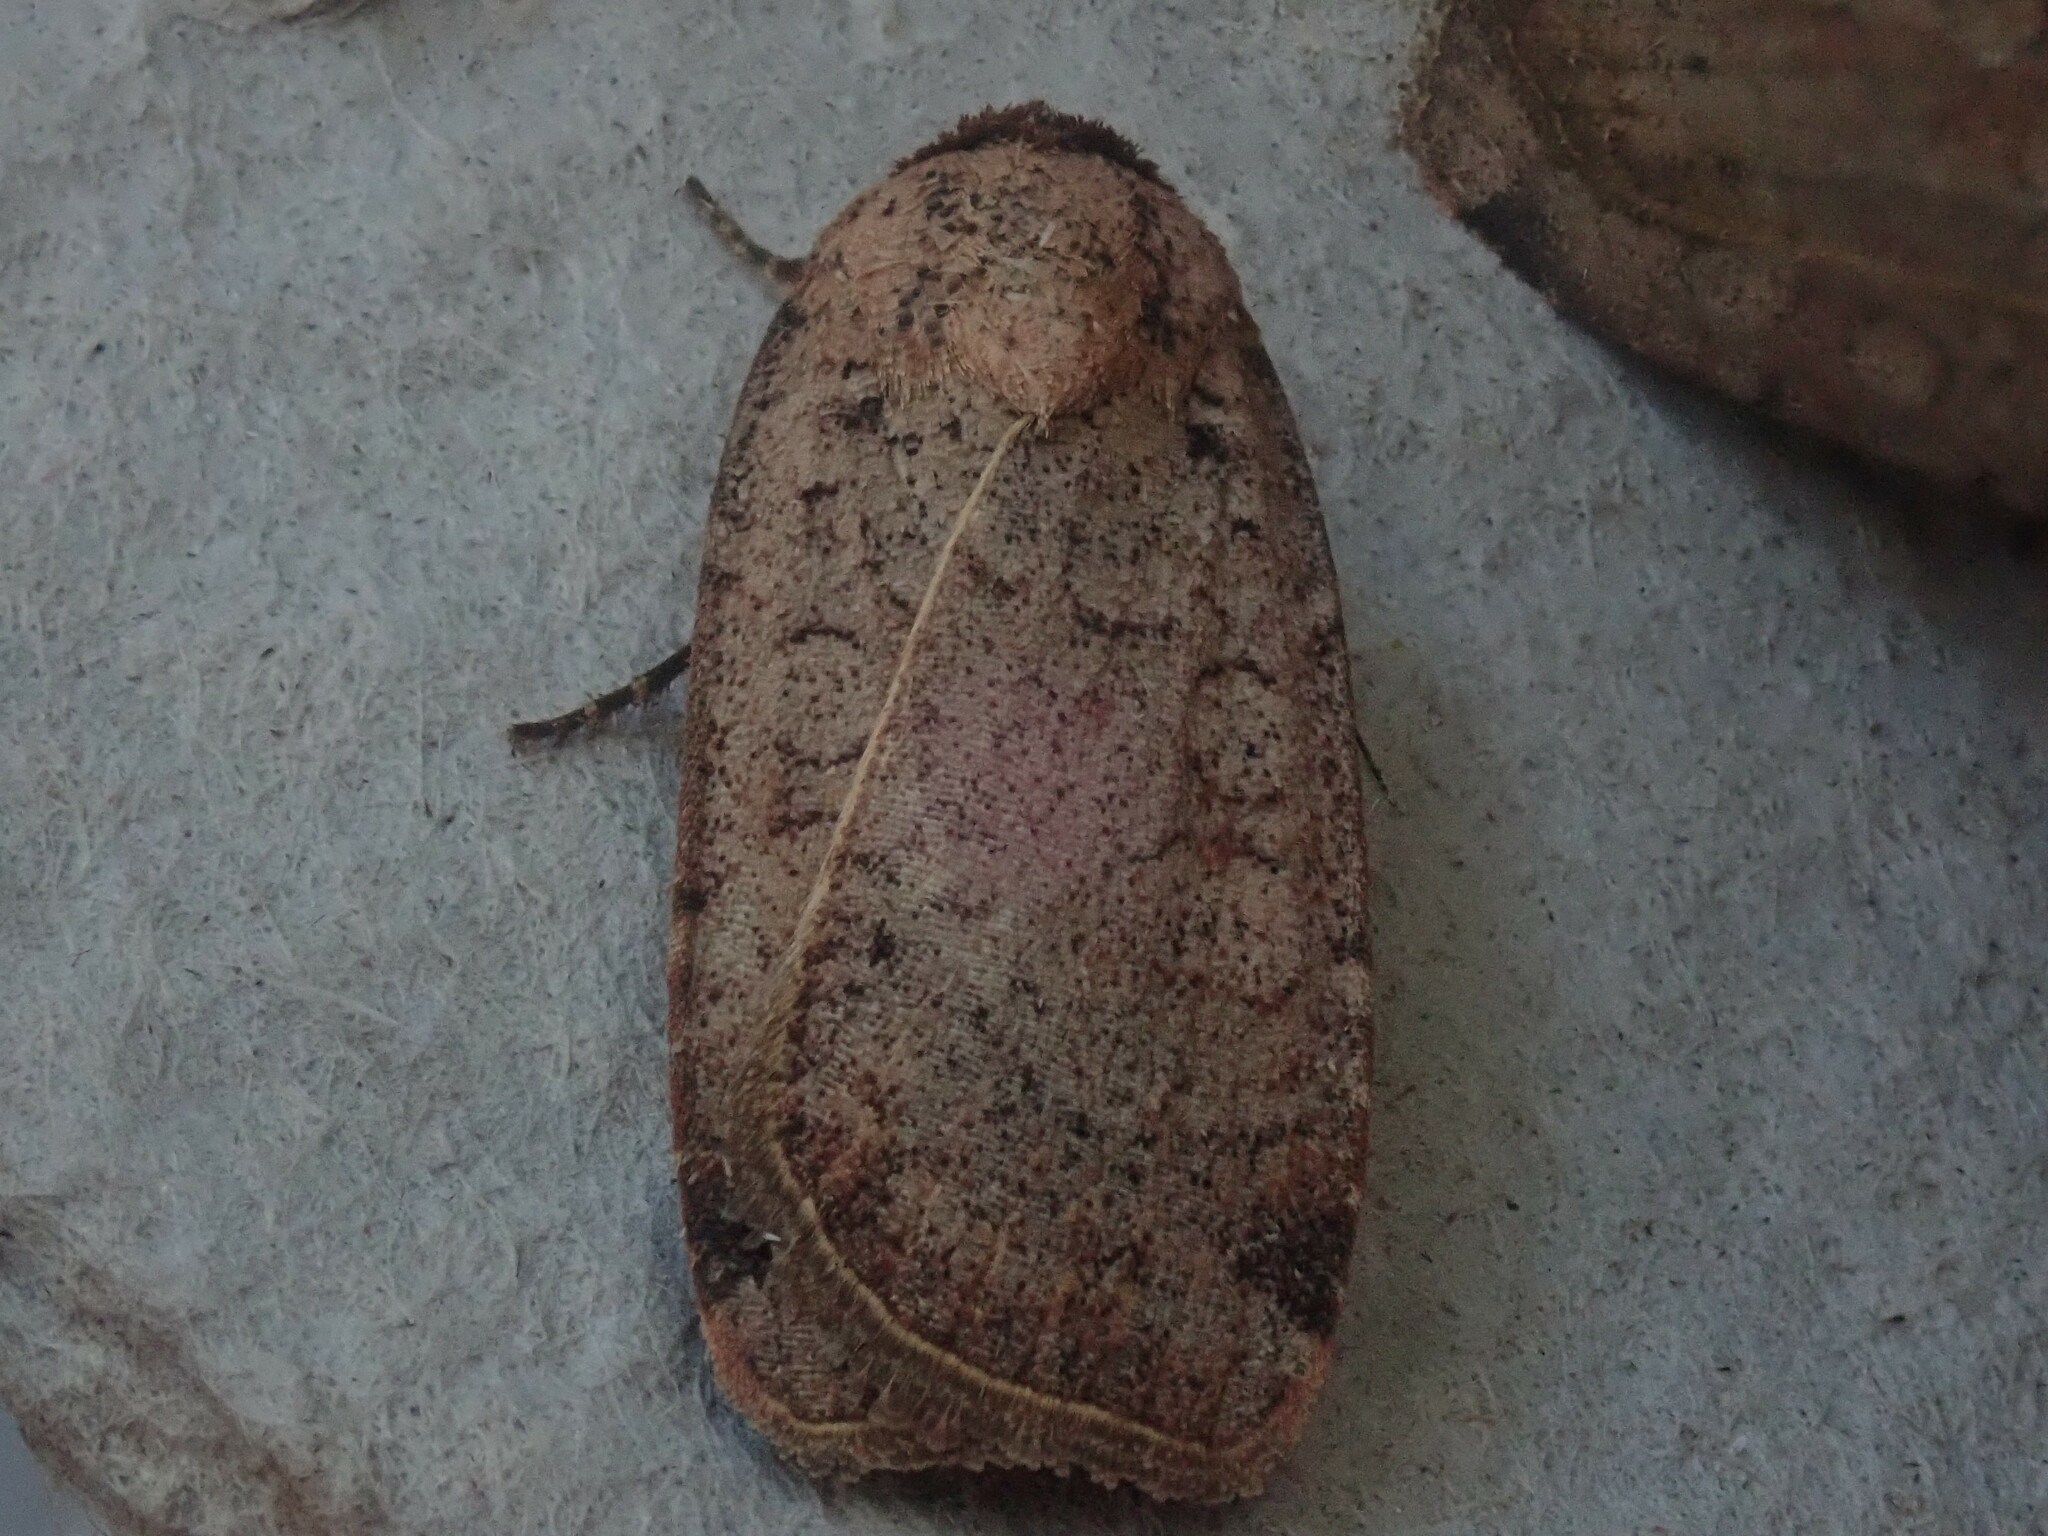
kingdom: Animalia
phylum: Arthropoda
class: Insecta
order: Lepidoptera
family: Noctuidae
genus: Protolampra
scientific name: Protolampra brunneicollis
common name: Brown-collared dart
